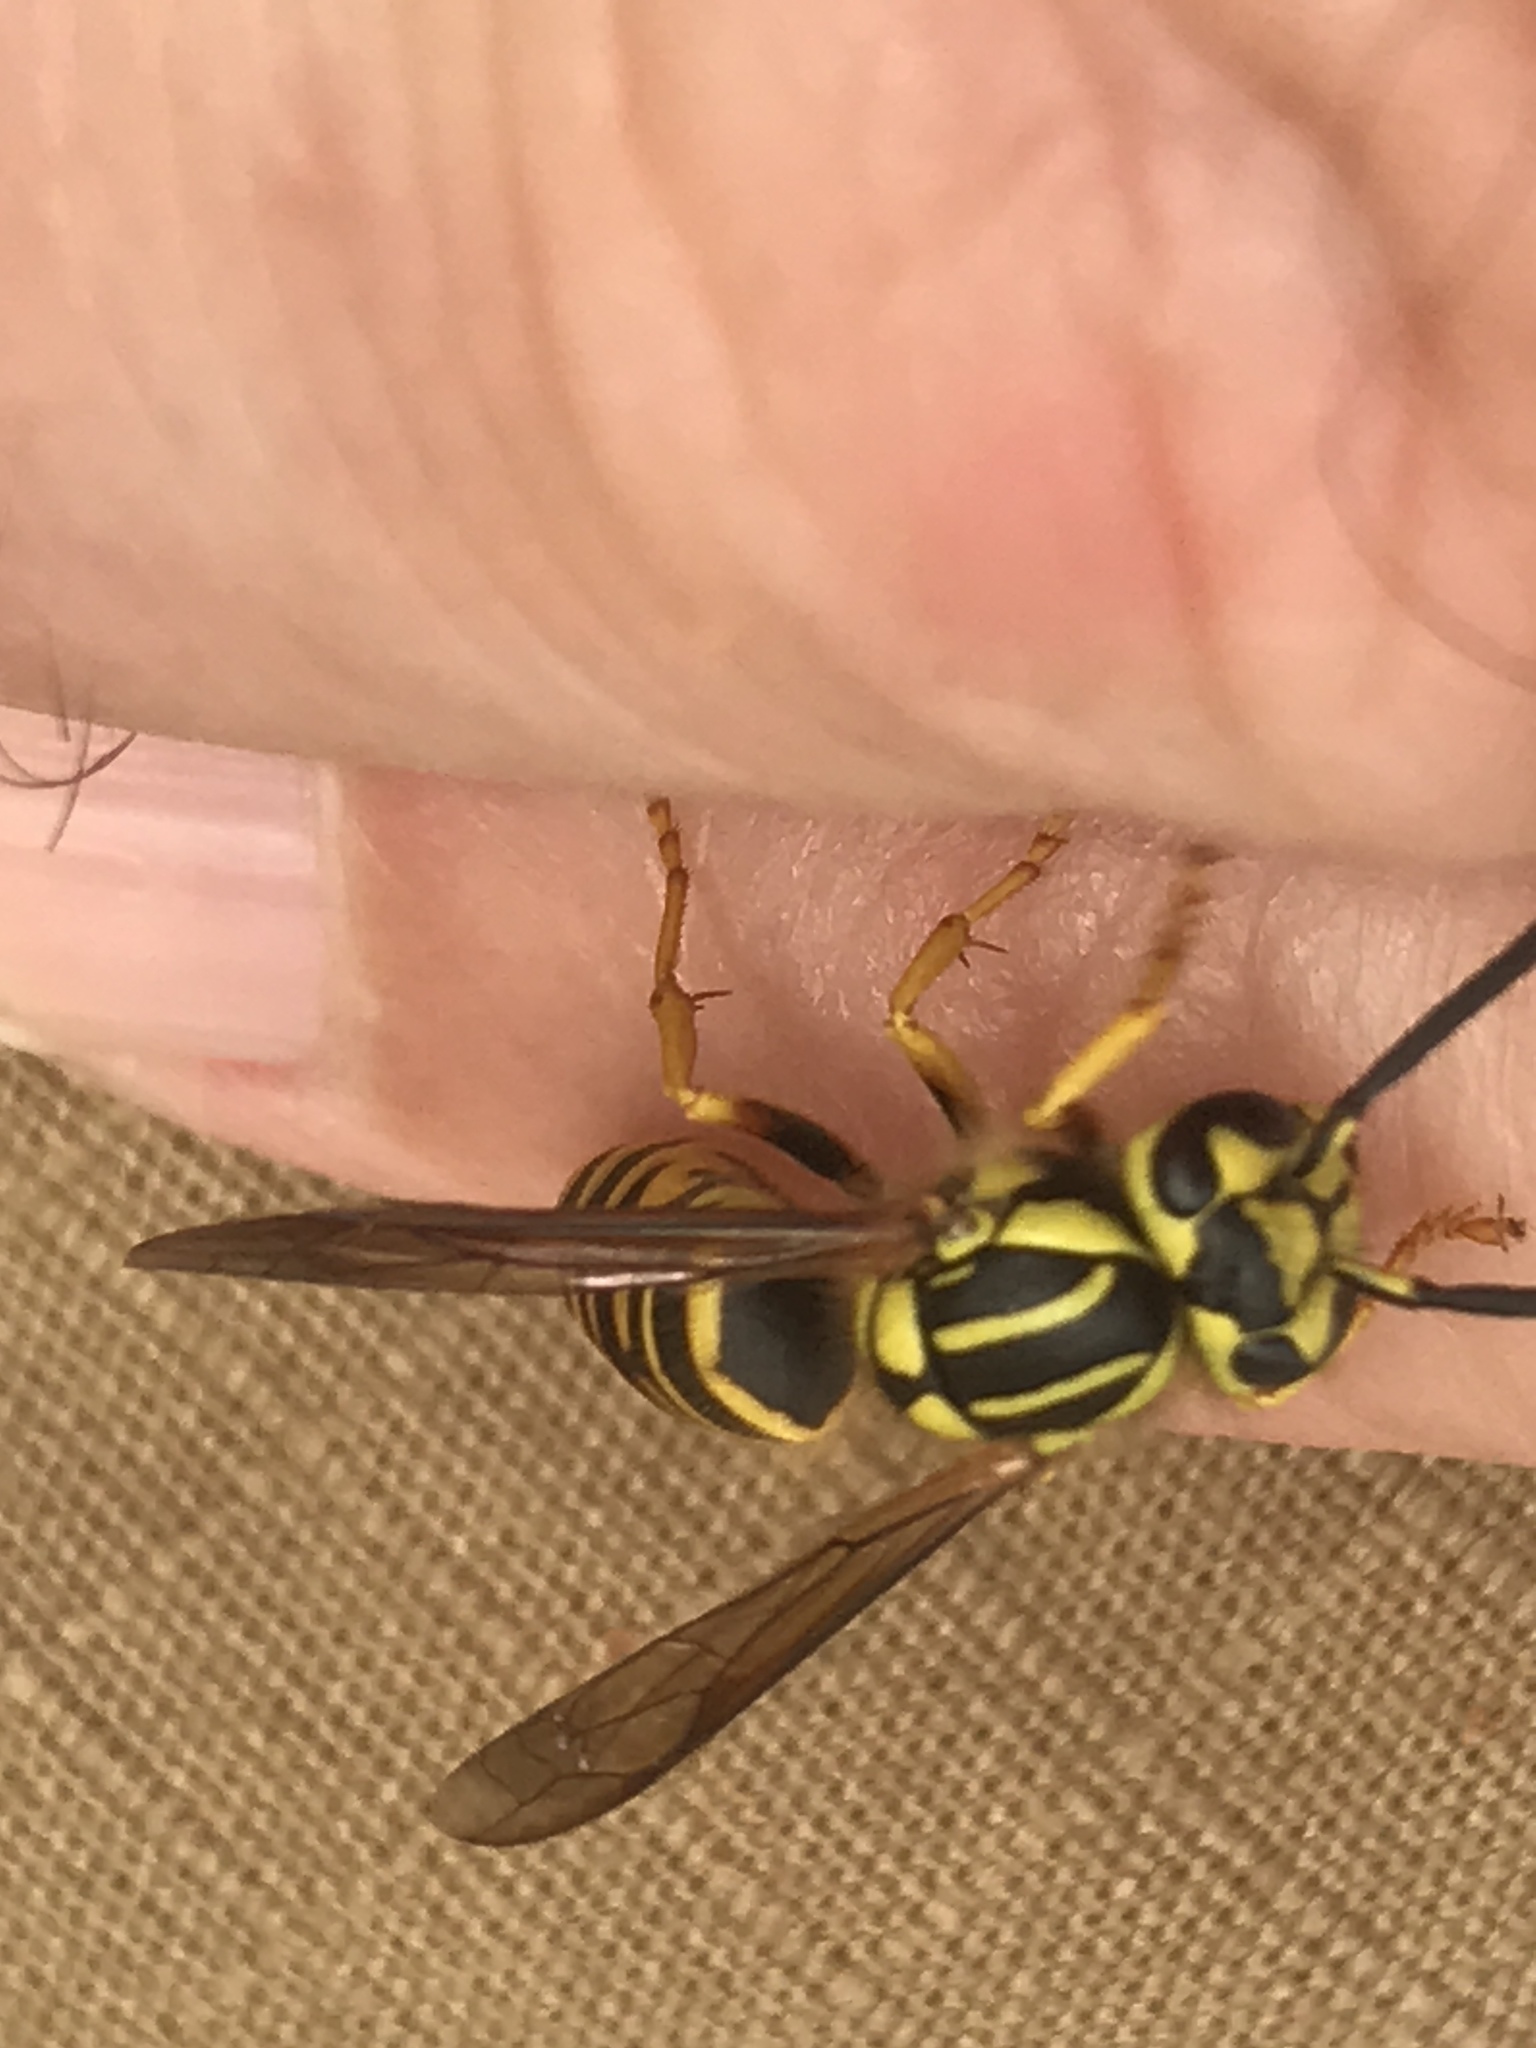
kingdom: Animalia
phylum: Arthropoda
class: Insecta
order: Hymenoptera
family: Vespidae
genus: Vespula
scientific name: Vespula squamosa
